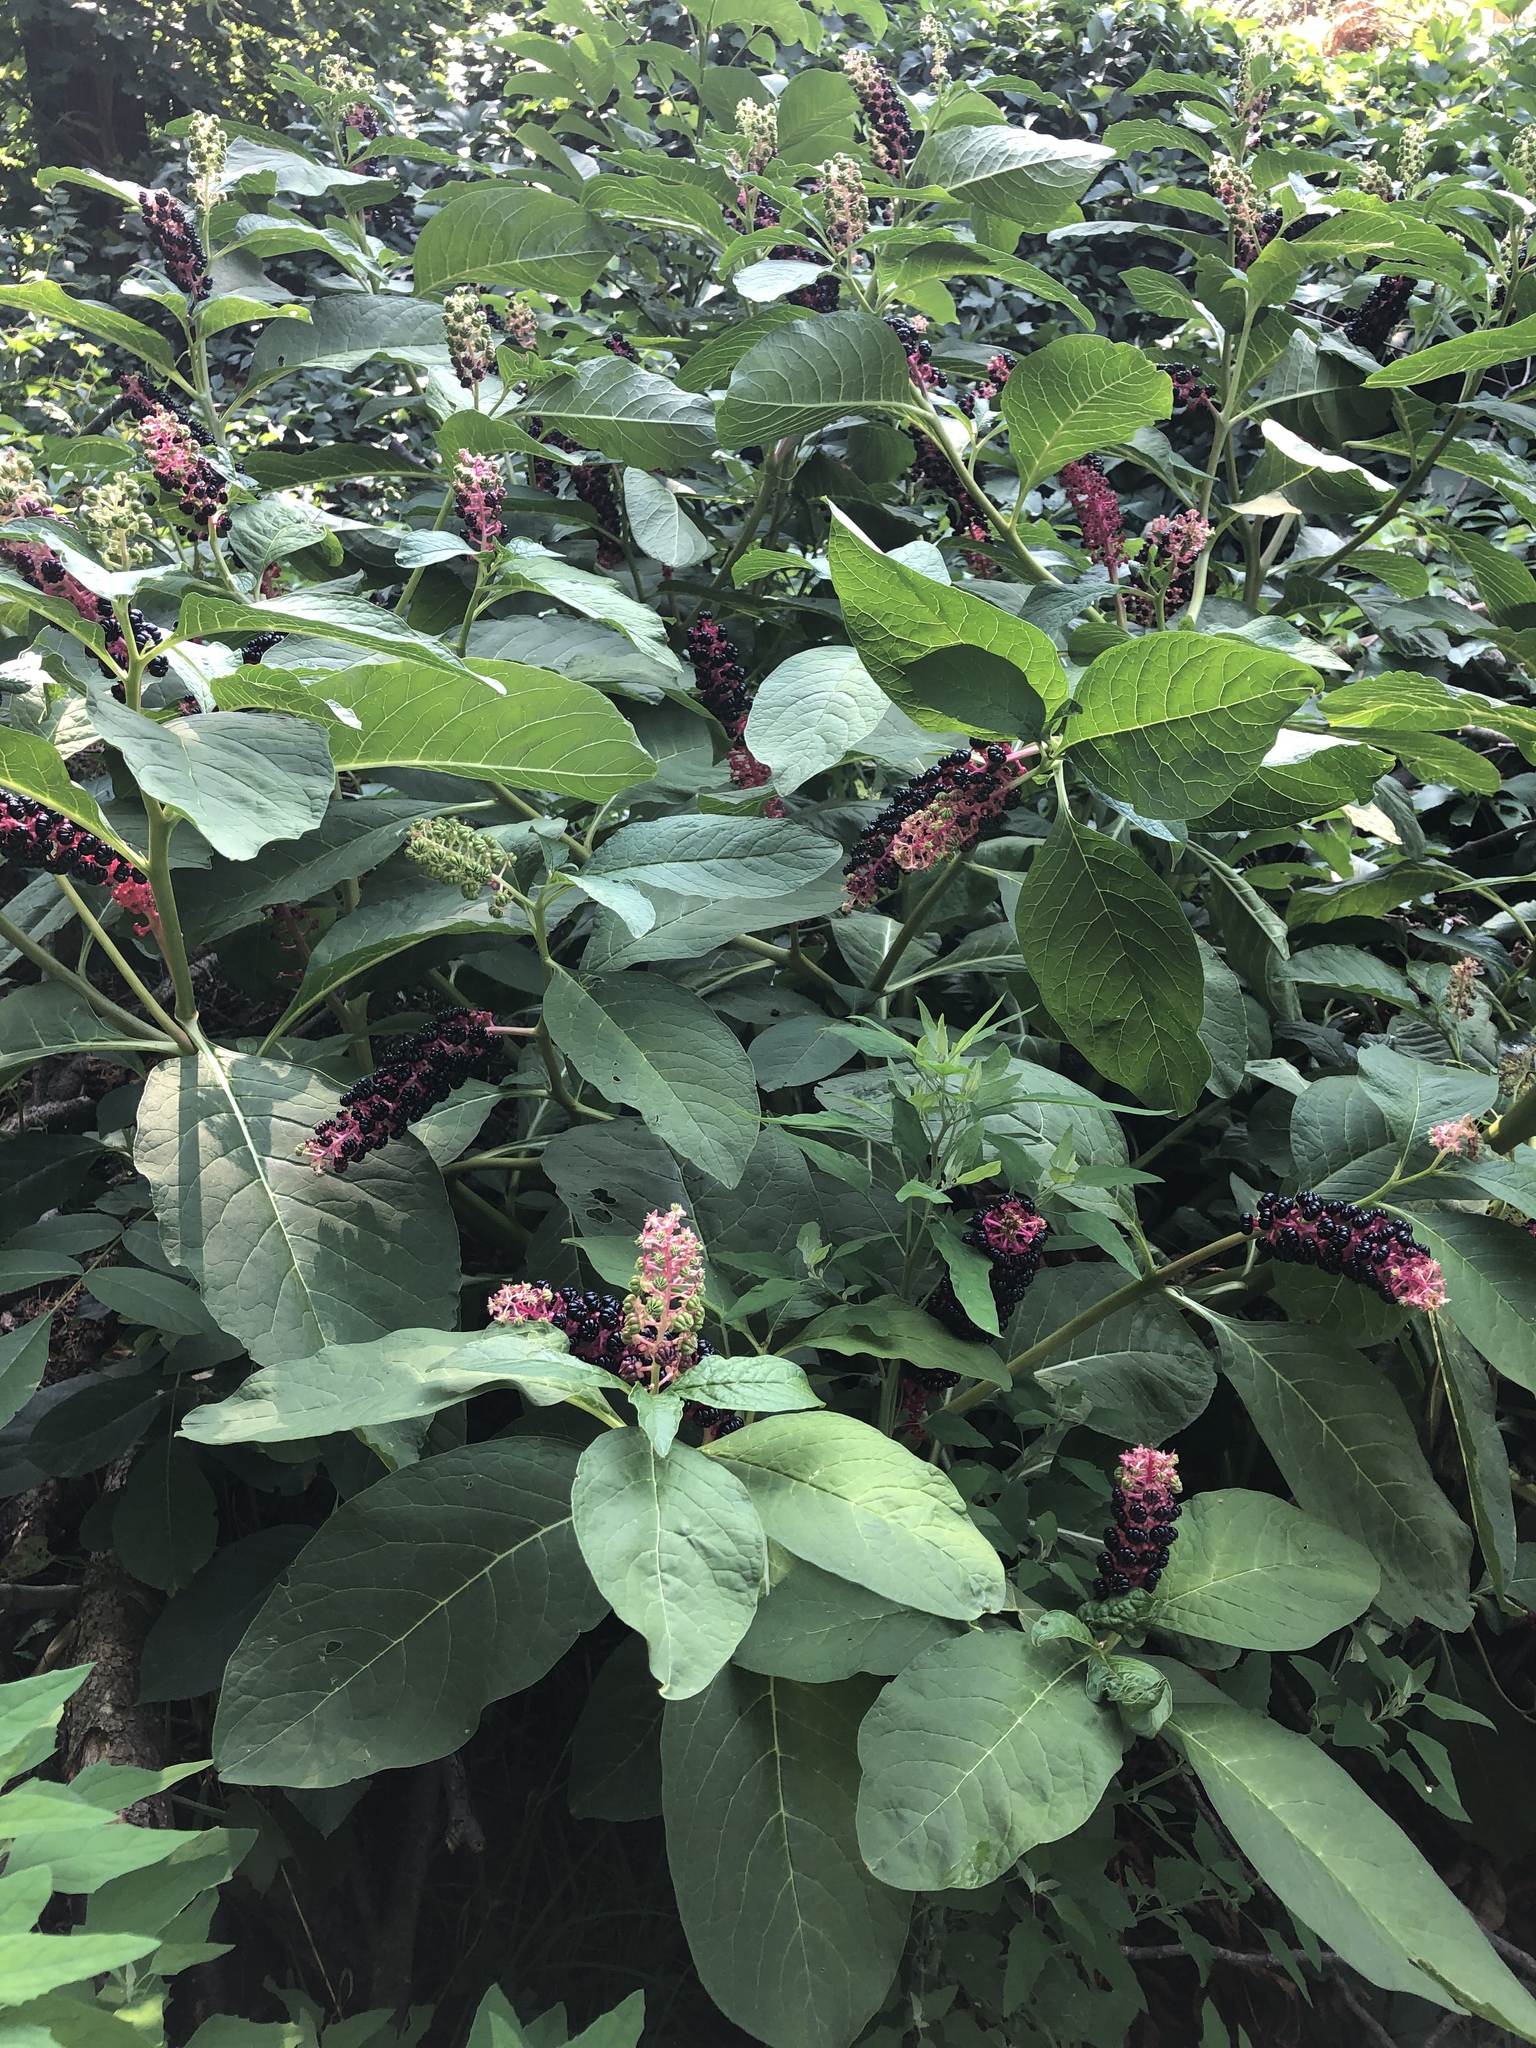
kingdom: Plantae
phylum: Tracheophyta
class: Magnoliopsida
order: Caryophyllales
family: Phytolaccaceae
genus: Phytolacca
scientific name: Phytolacca acinosa
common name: Indian pokeweed
